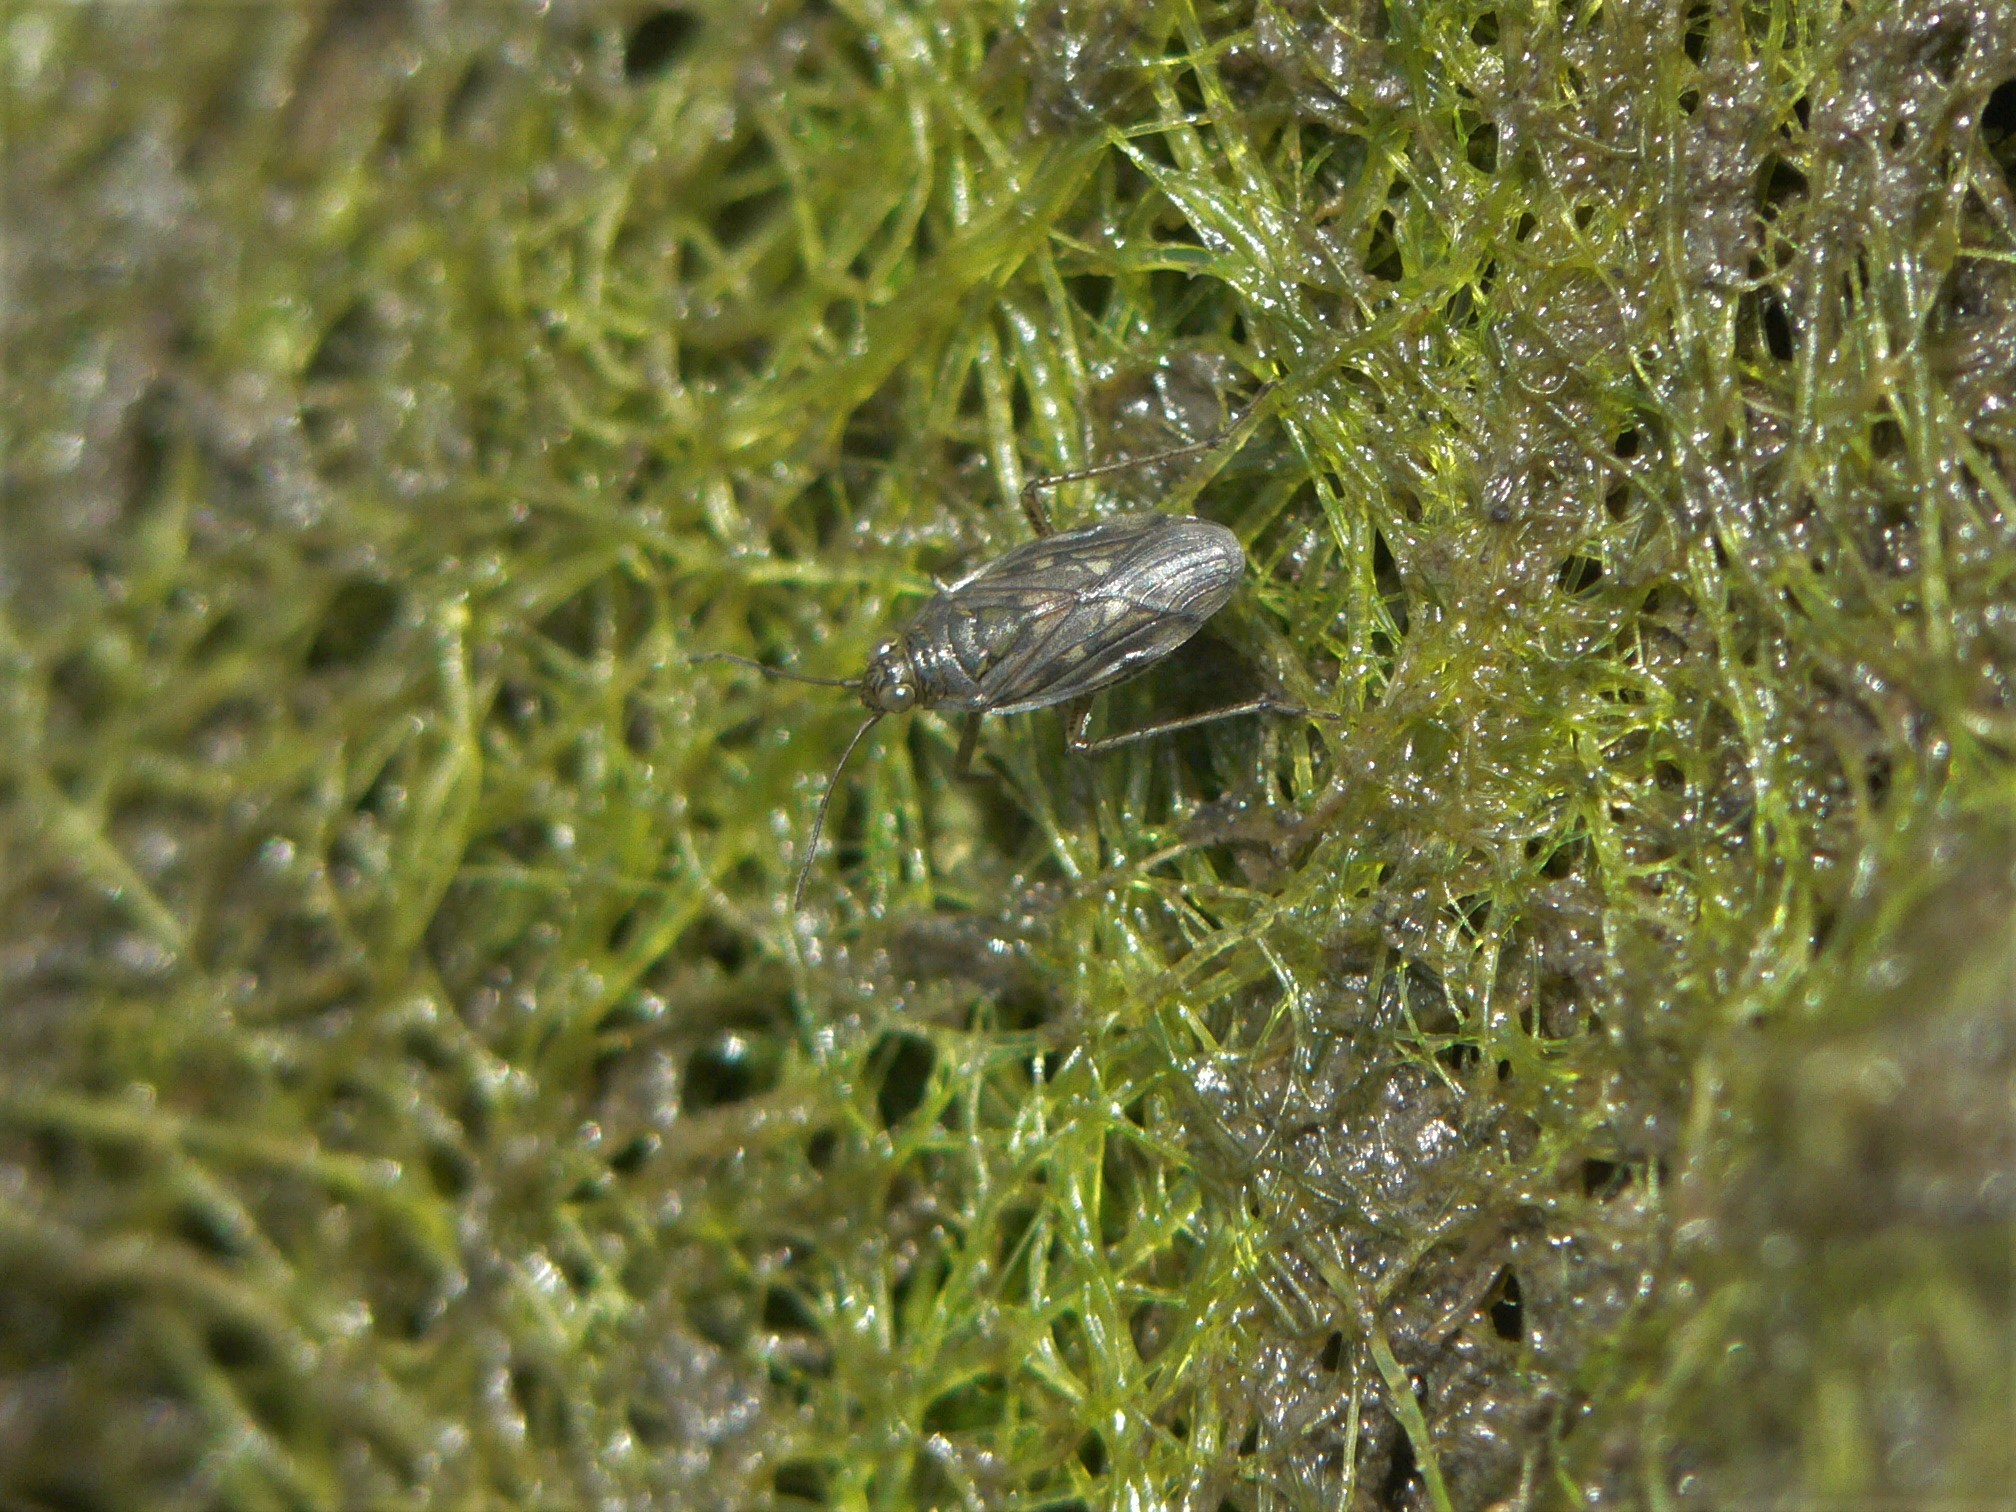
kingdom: Animalia
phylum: Arthropoda
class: Insecta
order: Hemiptera
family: Saldidae
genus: Pentacora
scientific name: Pentacora sphacelata
